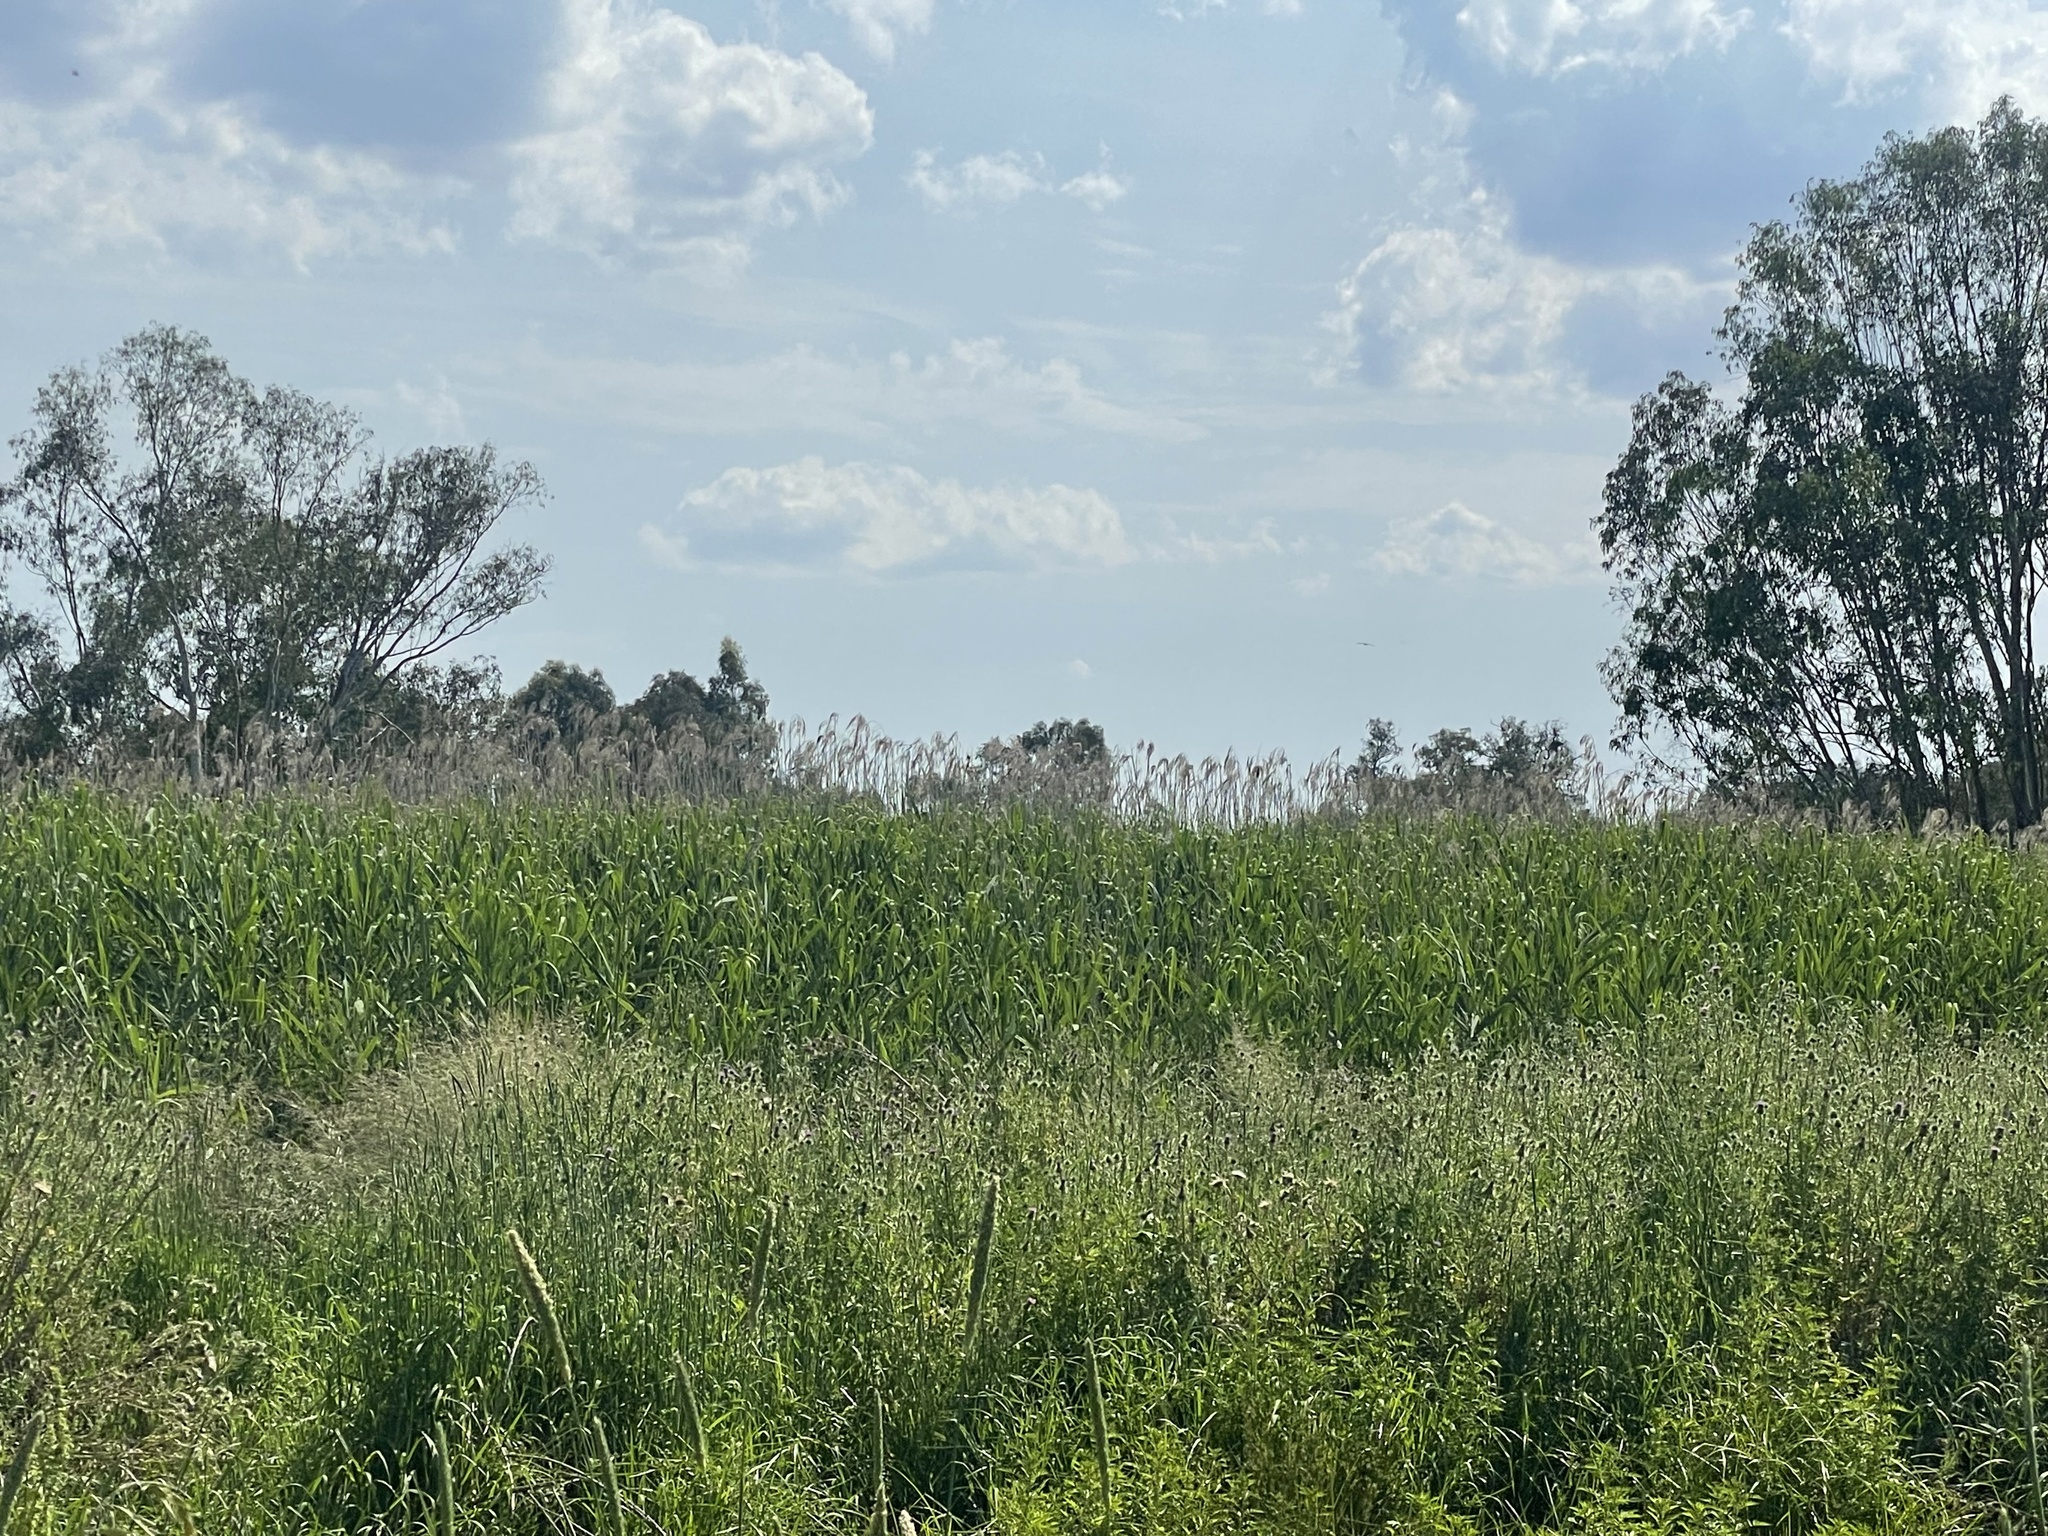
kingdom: Plantae
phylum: Tracheophyta
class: Liliopsida
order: Poales
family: Poaceae
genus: Phragmites
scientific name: Phragmites australis
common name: Common reed
